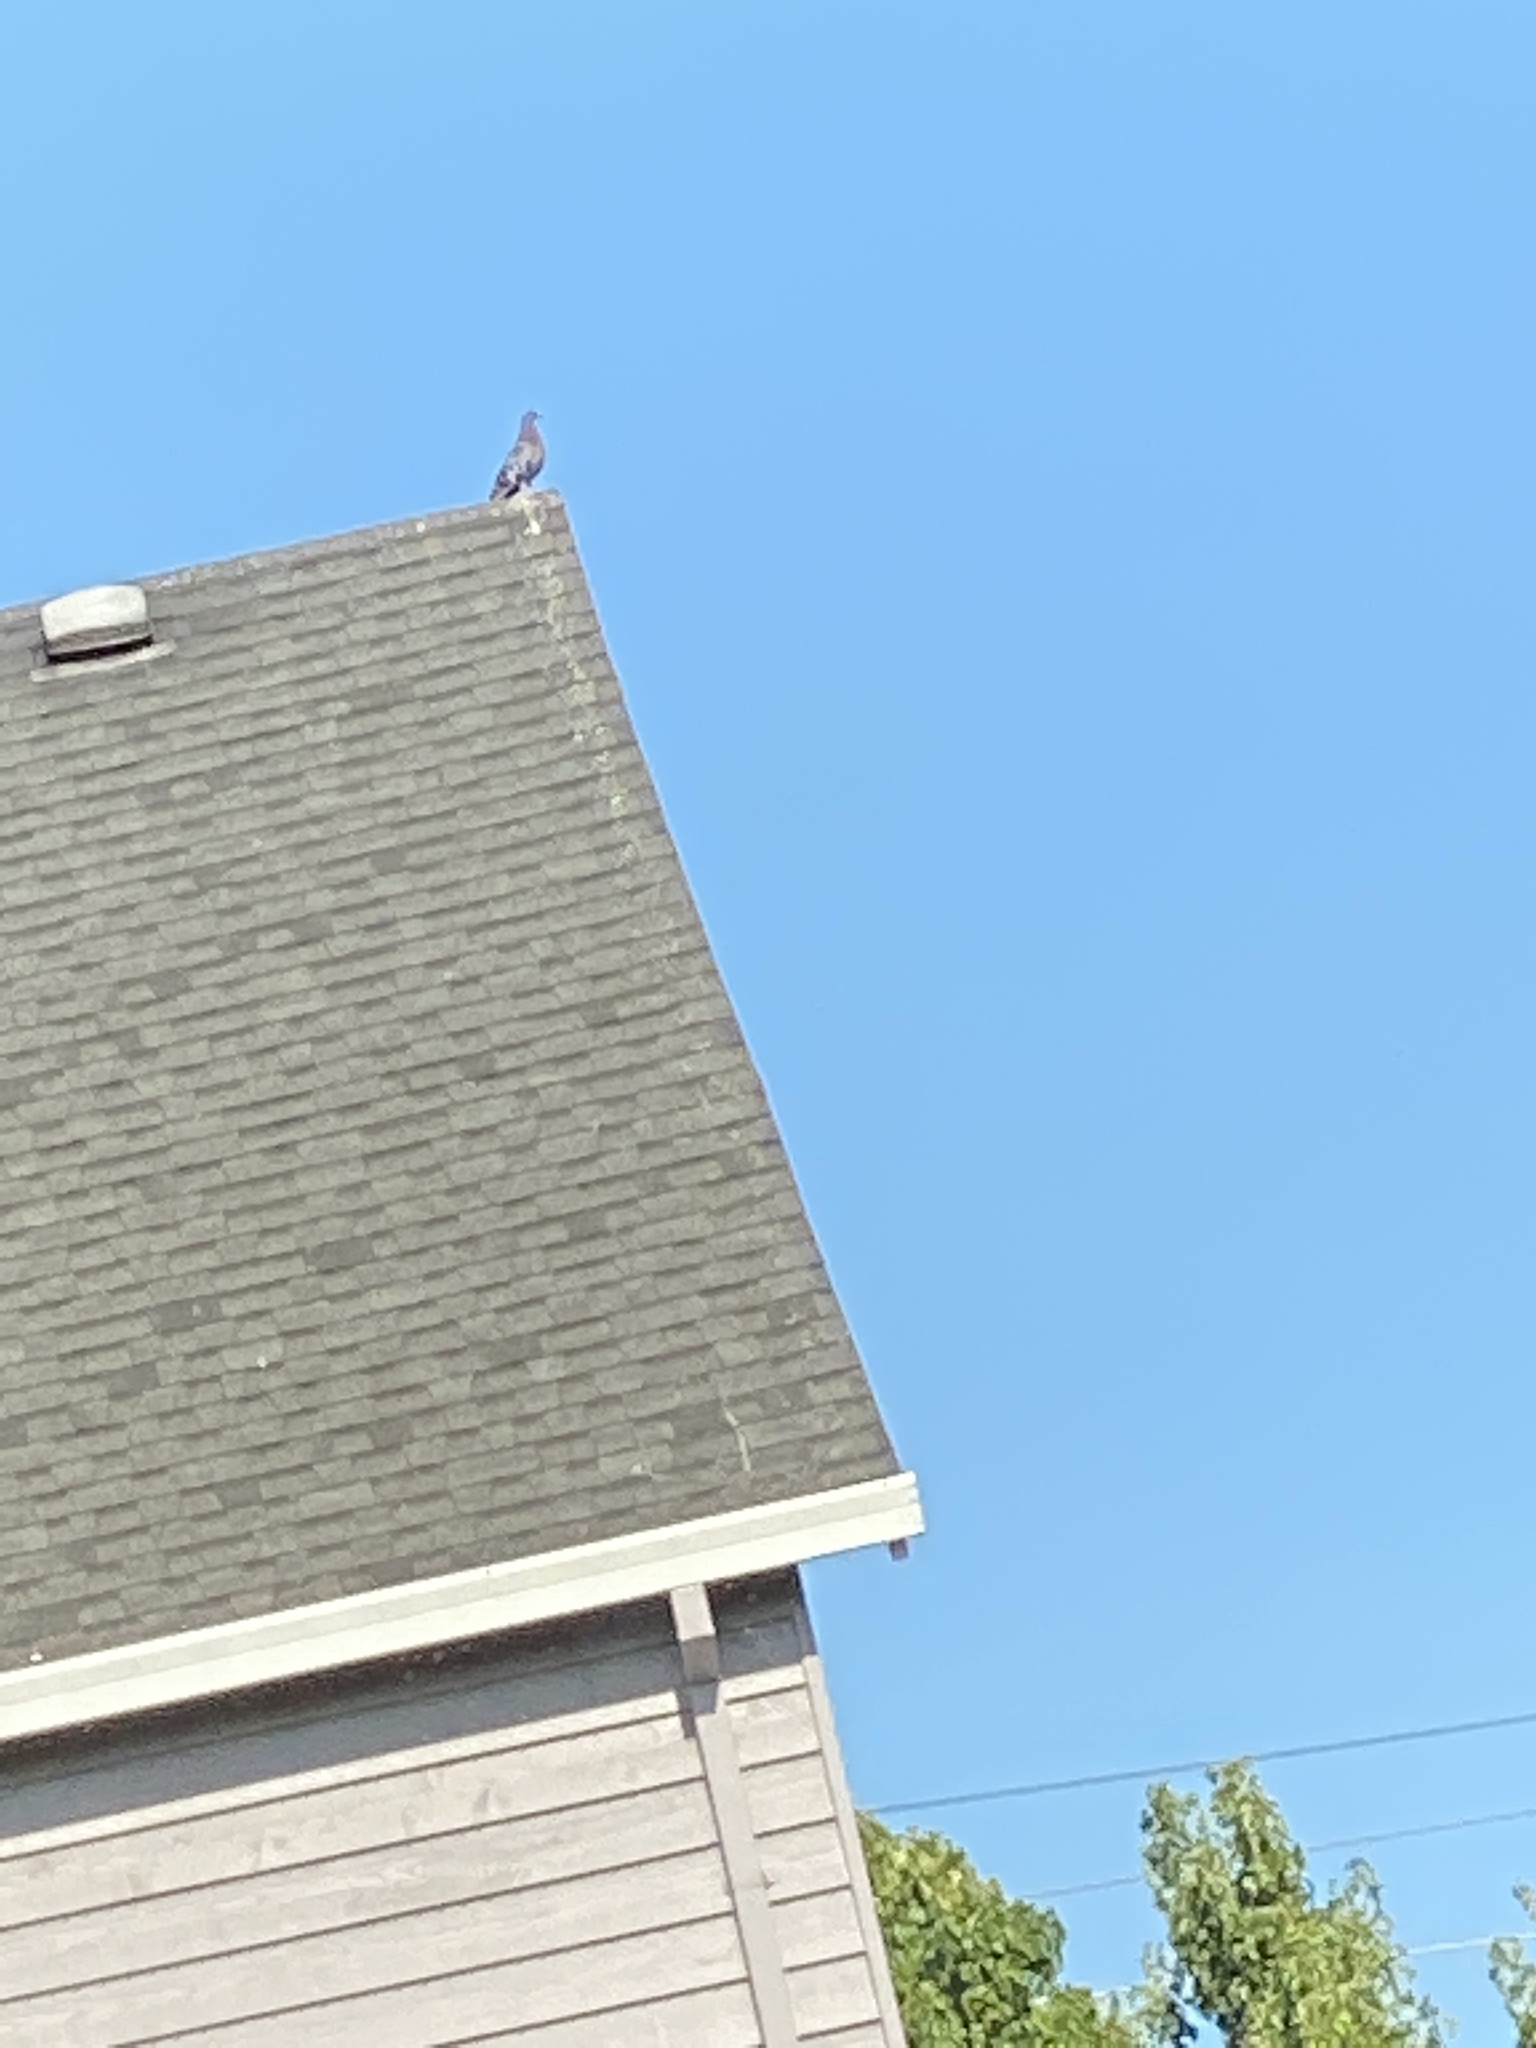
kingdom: Animalia
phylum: Chordata
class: Aves
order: Columbiformes
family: Columbidae
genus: Columba
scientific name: Columba livia
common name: Rock pigeon
